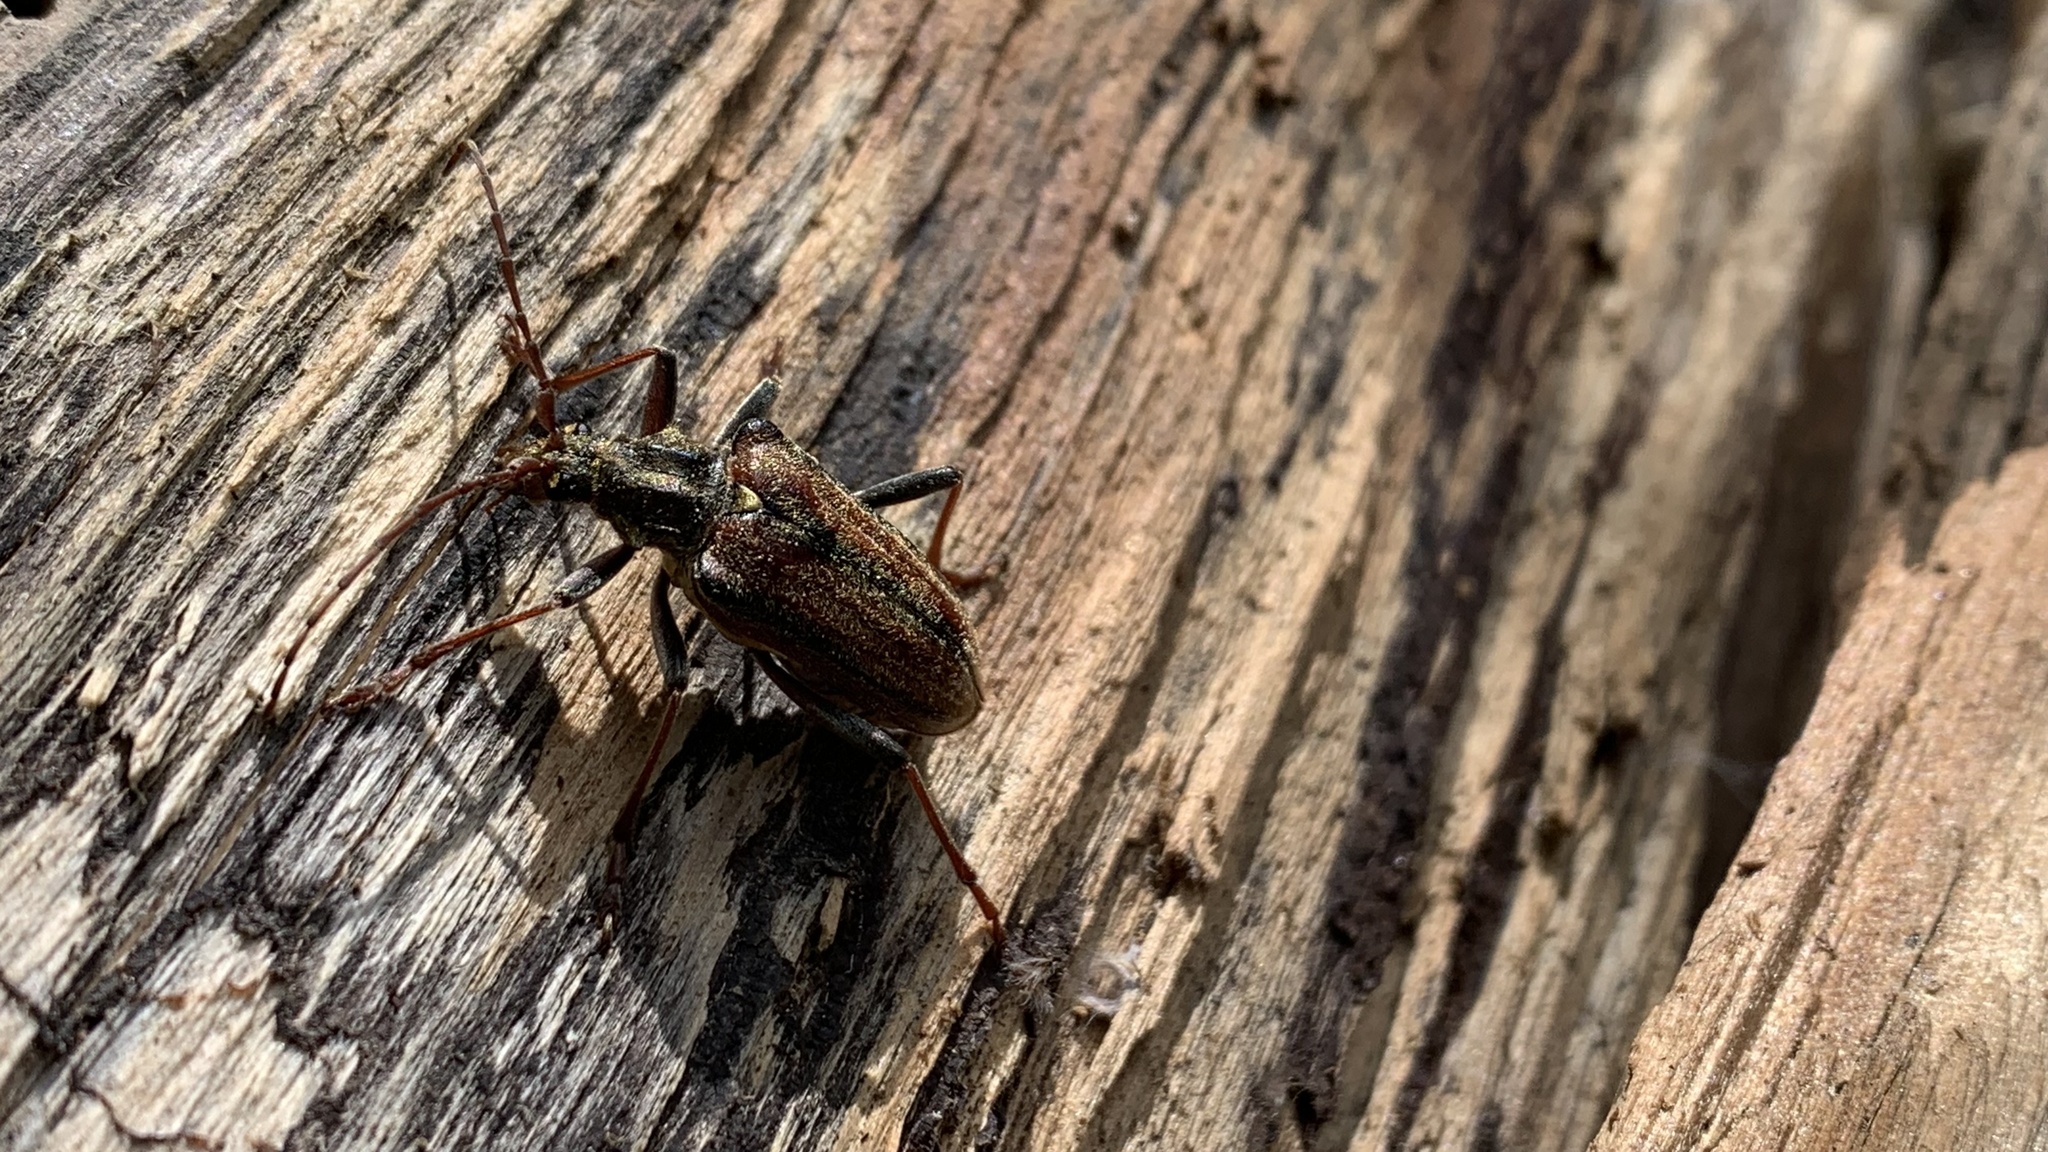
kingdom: Animalia
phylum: Arthropoda
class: Insecta
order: Coleoptera
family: Cerambycidae
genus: Oxymirus
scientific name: Oxymirus cursor
